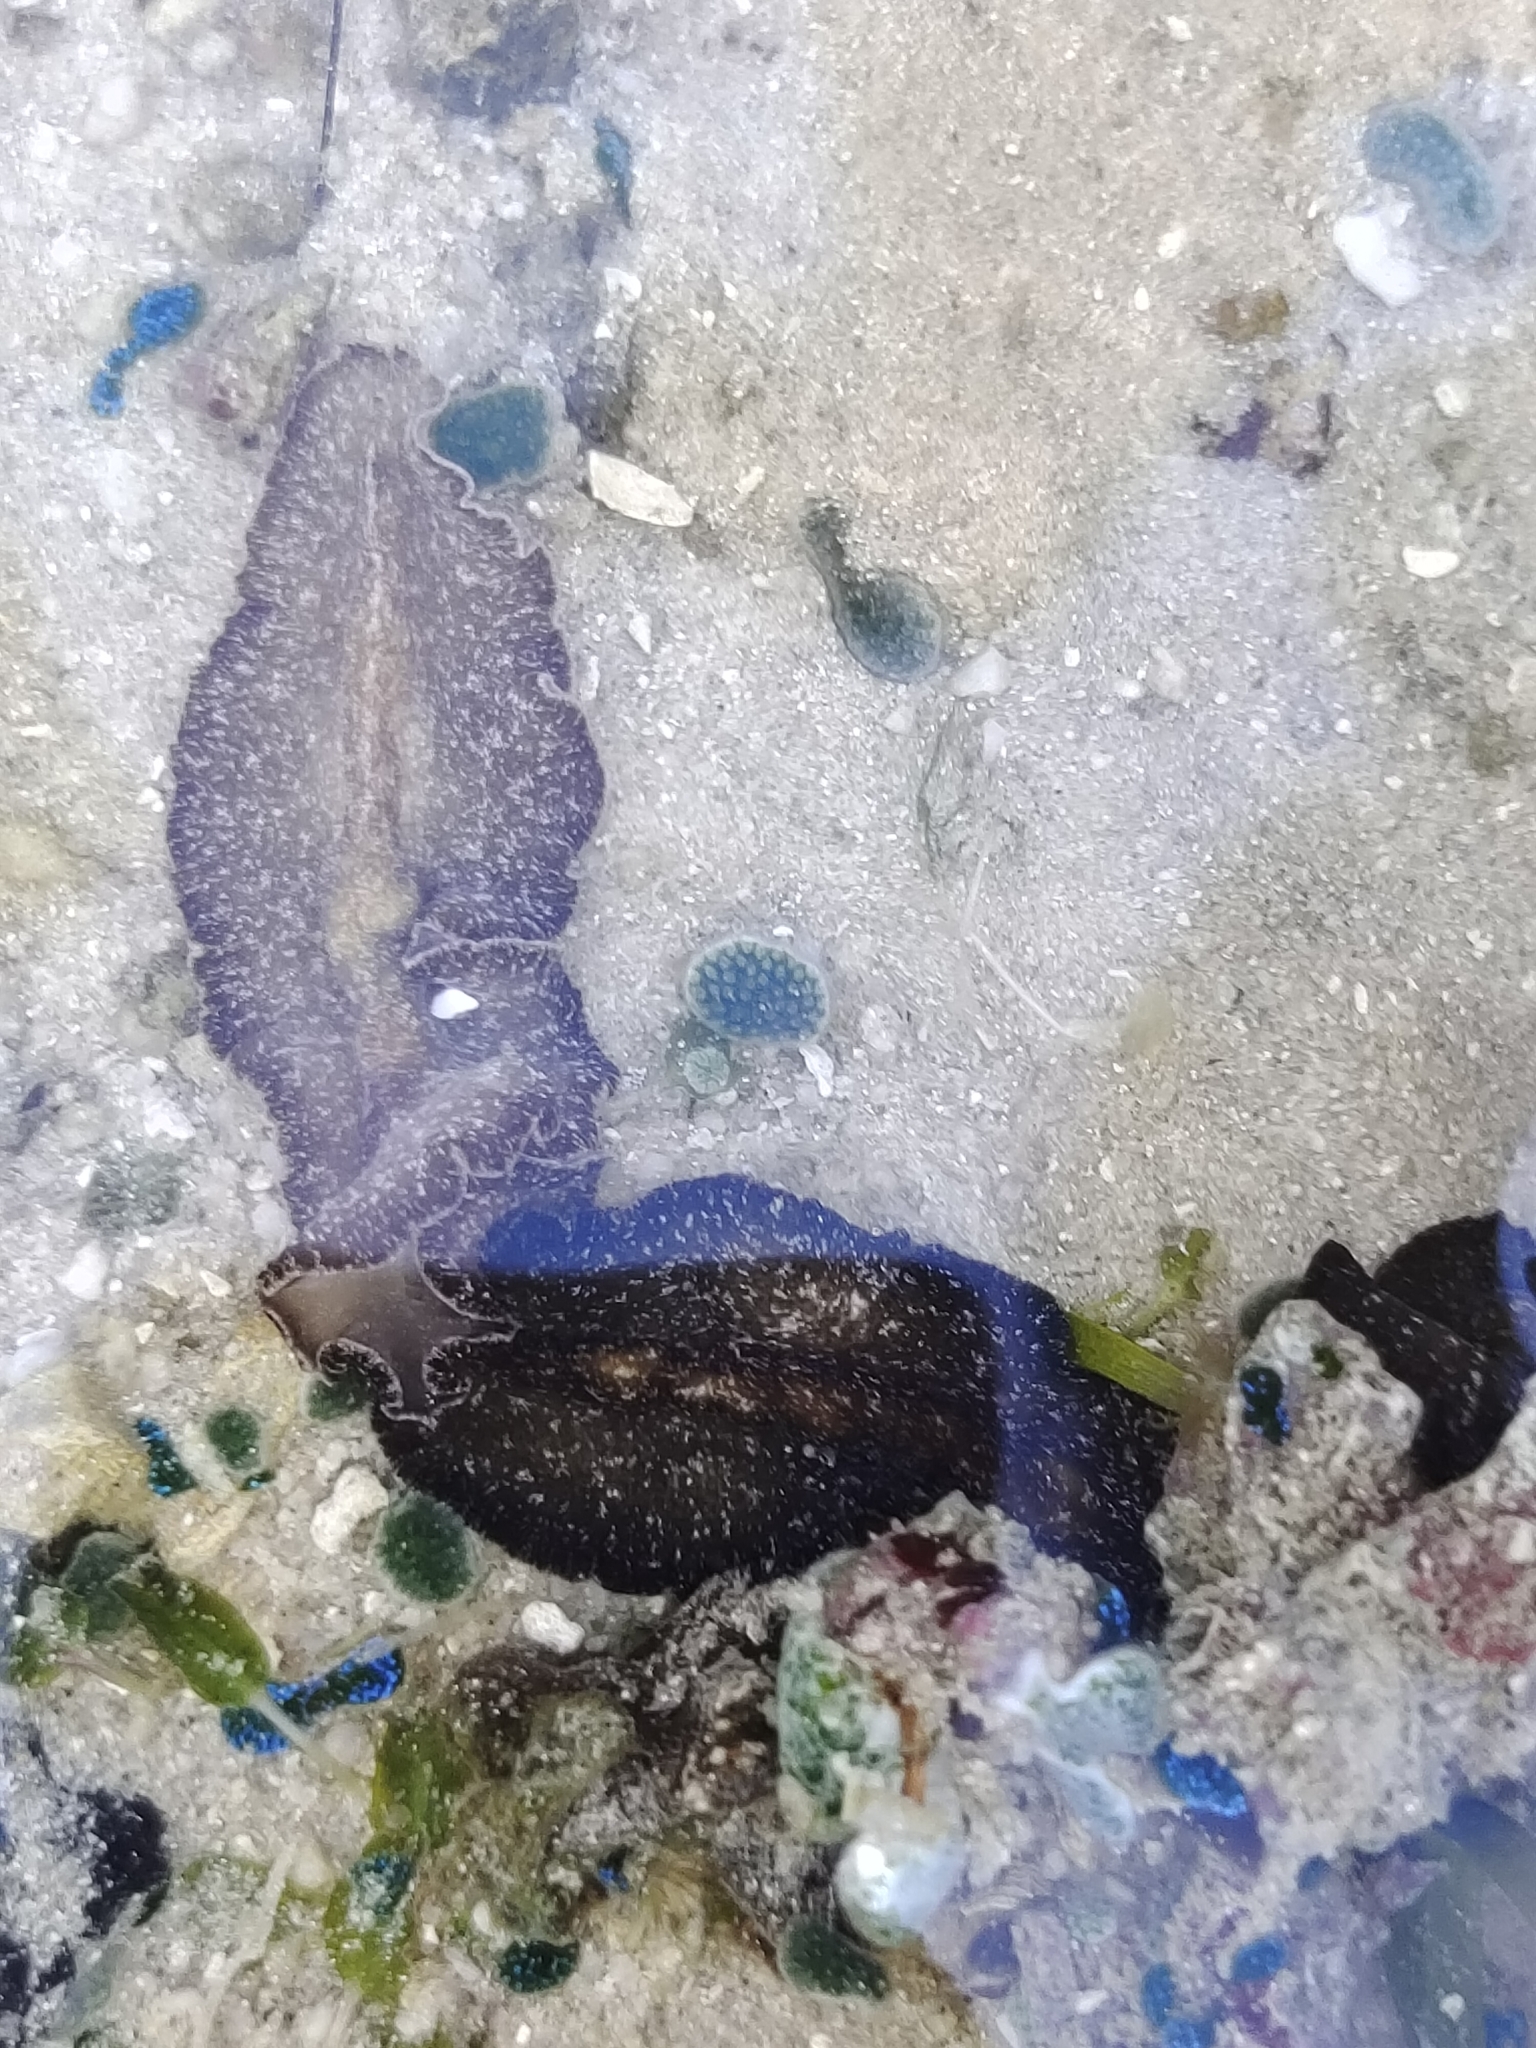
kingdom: Animalia
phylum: Platyhelminthes
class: Turbellaria
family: Pseudocerotidae
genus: Pseudobiceros
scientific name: Pseudobiceros stellae
